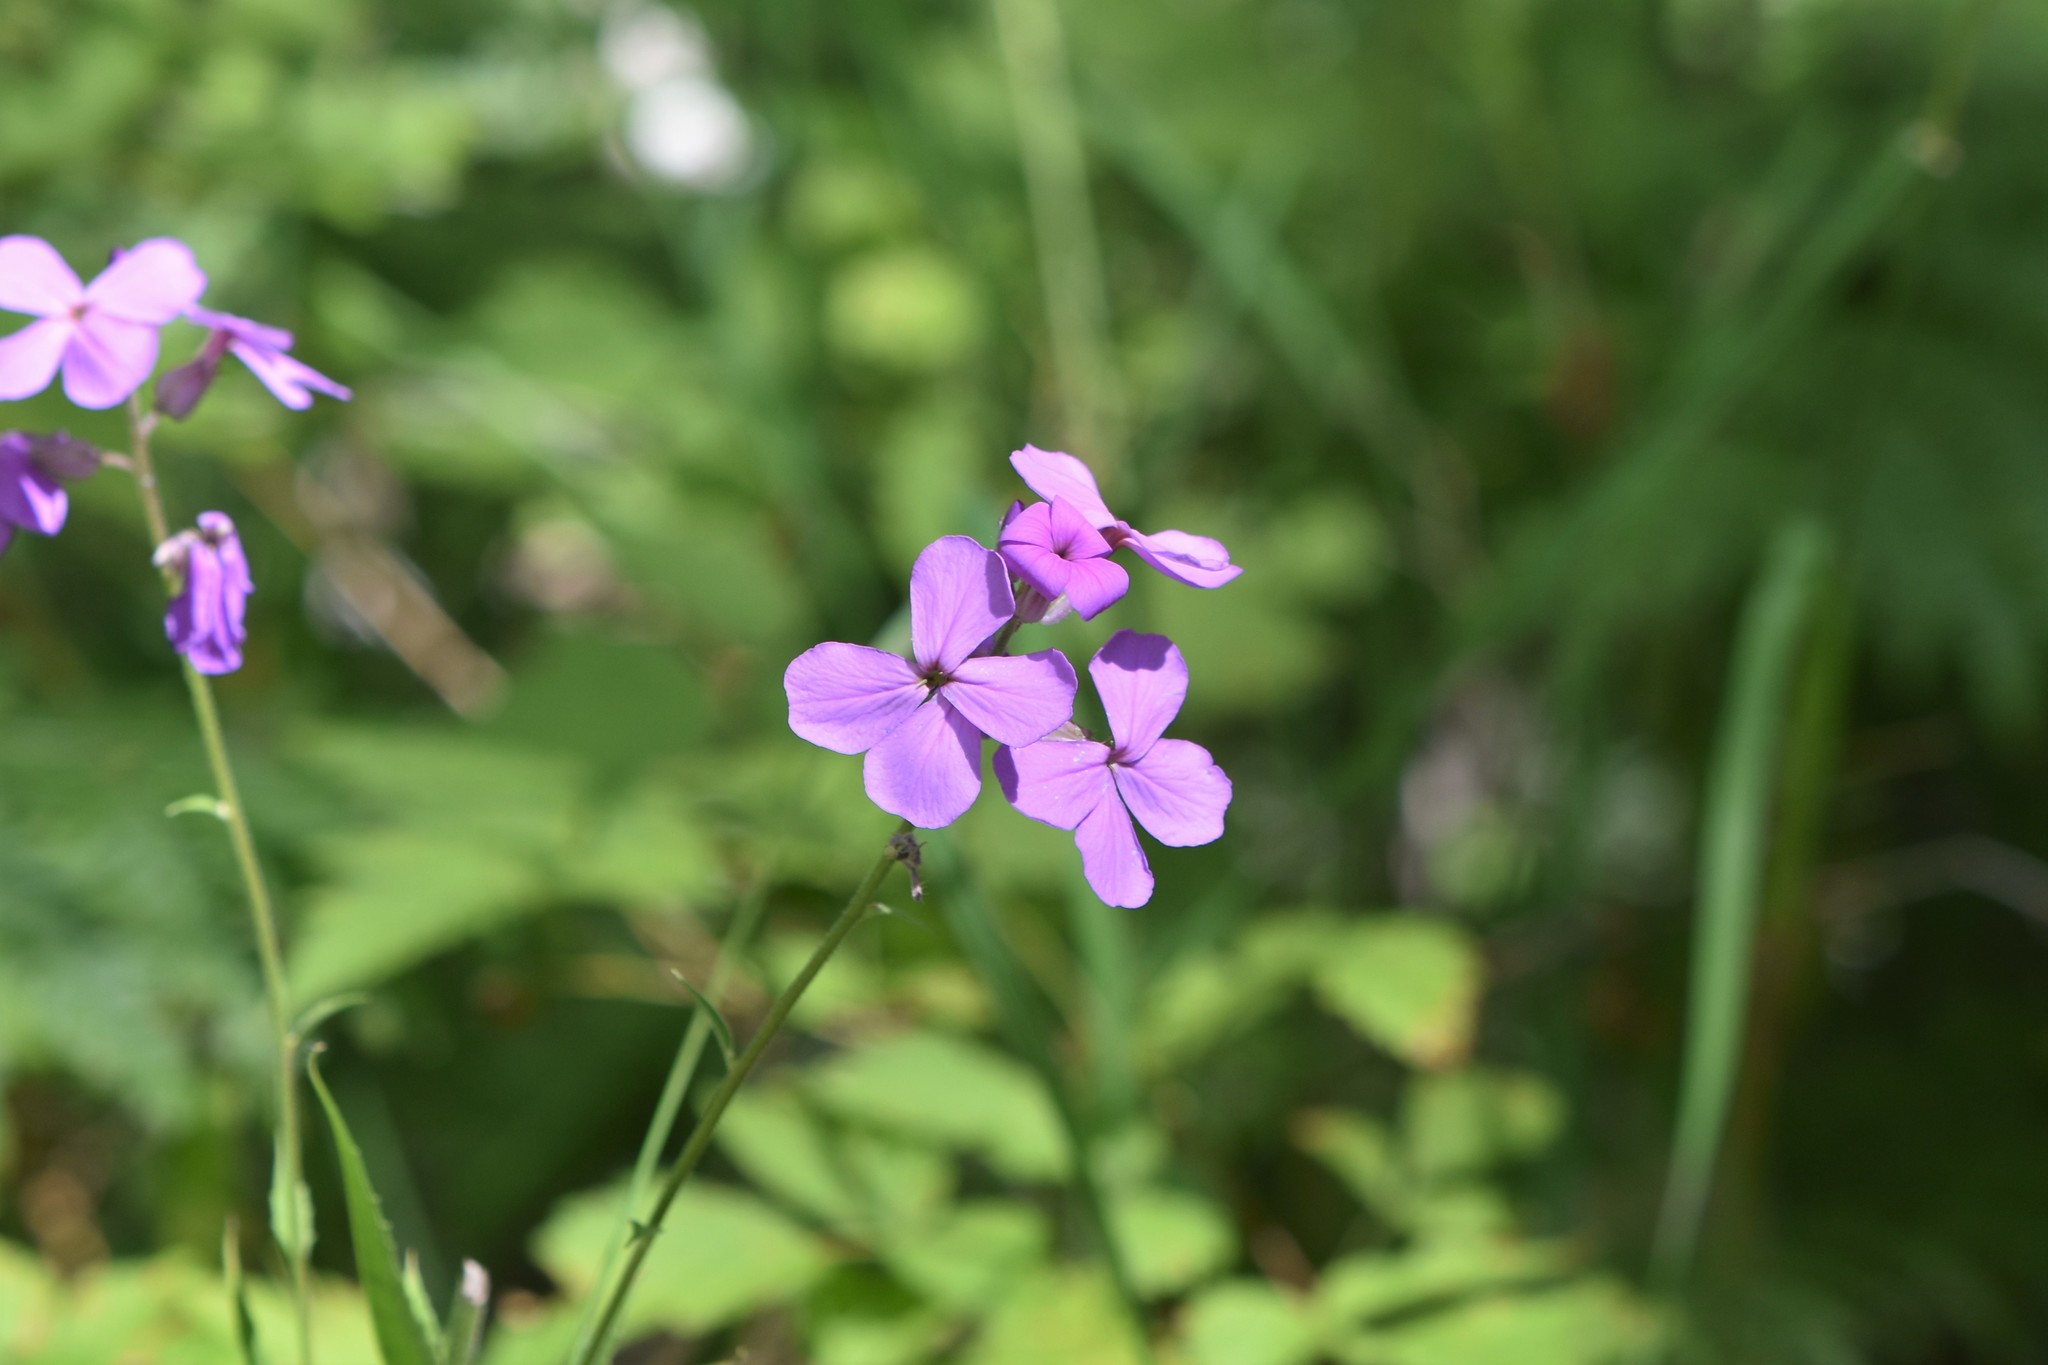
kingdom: Plantae
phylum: Tracheophyta
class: Magnoliopsida
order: Brassicales
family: Brassicaceae
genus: Hesperis
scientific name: Hesperis matronalis
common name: Dame's-violet
